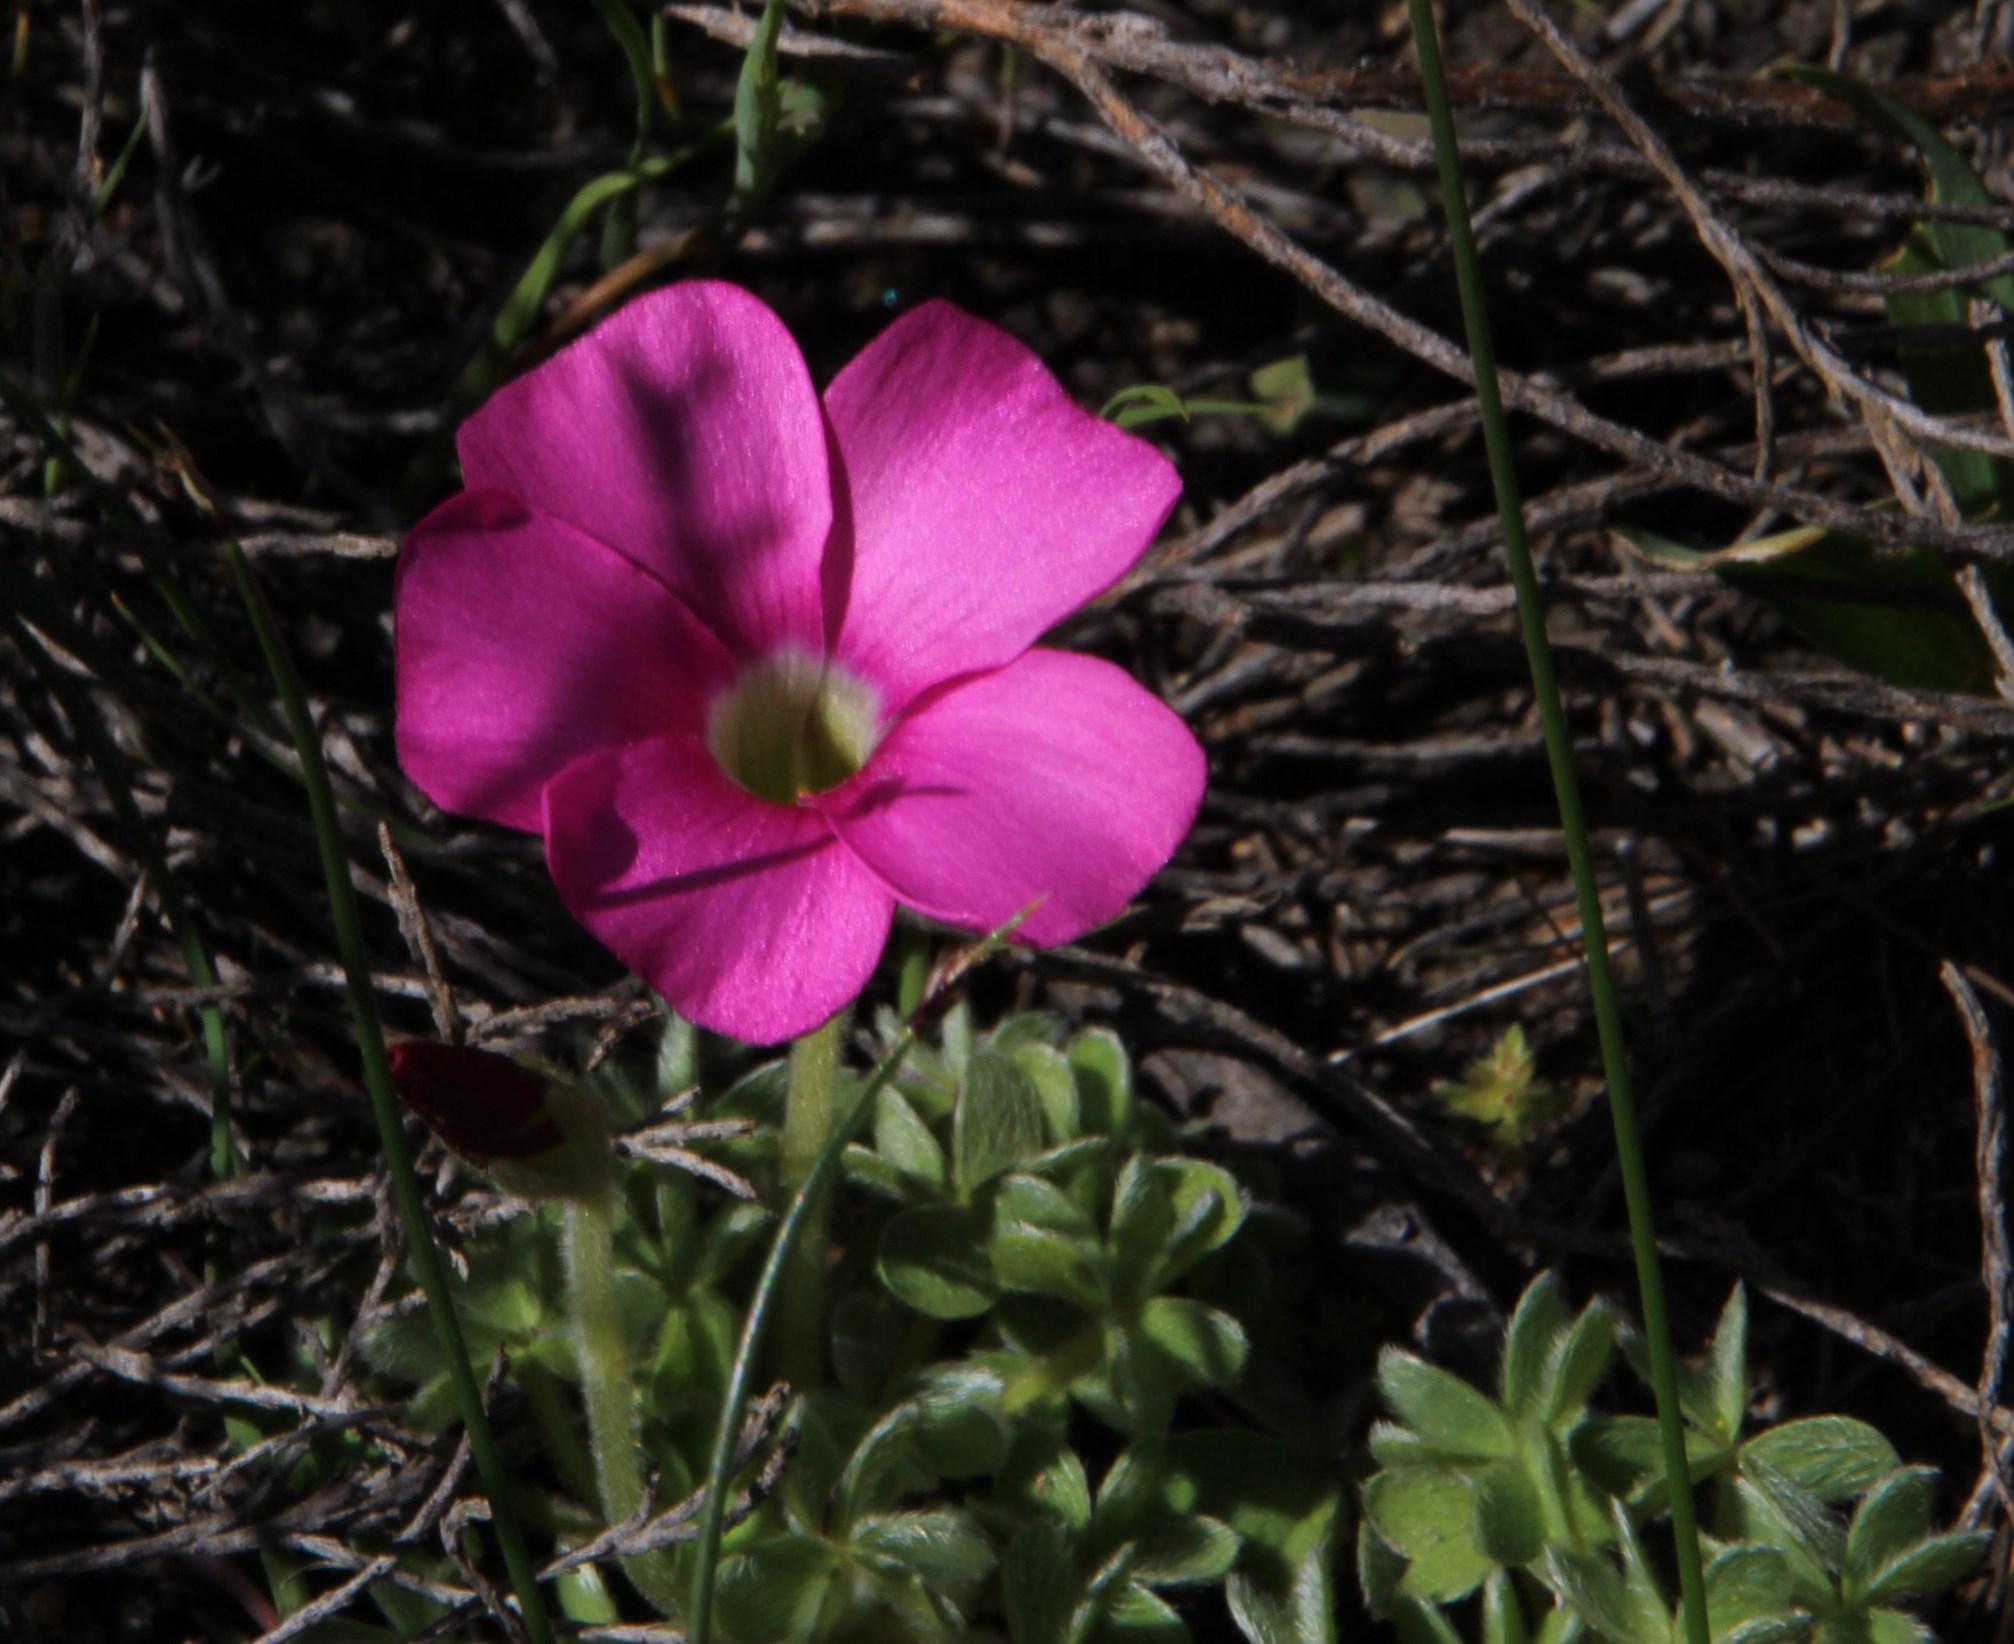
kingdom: Plantae
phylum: Tracheophyta
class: Magnoliopsida
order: Oxalidales
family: Oxalidaceae
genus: Oxalis
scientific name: Oxalis heterophylla
